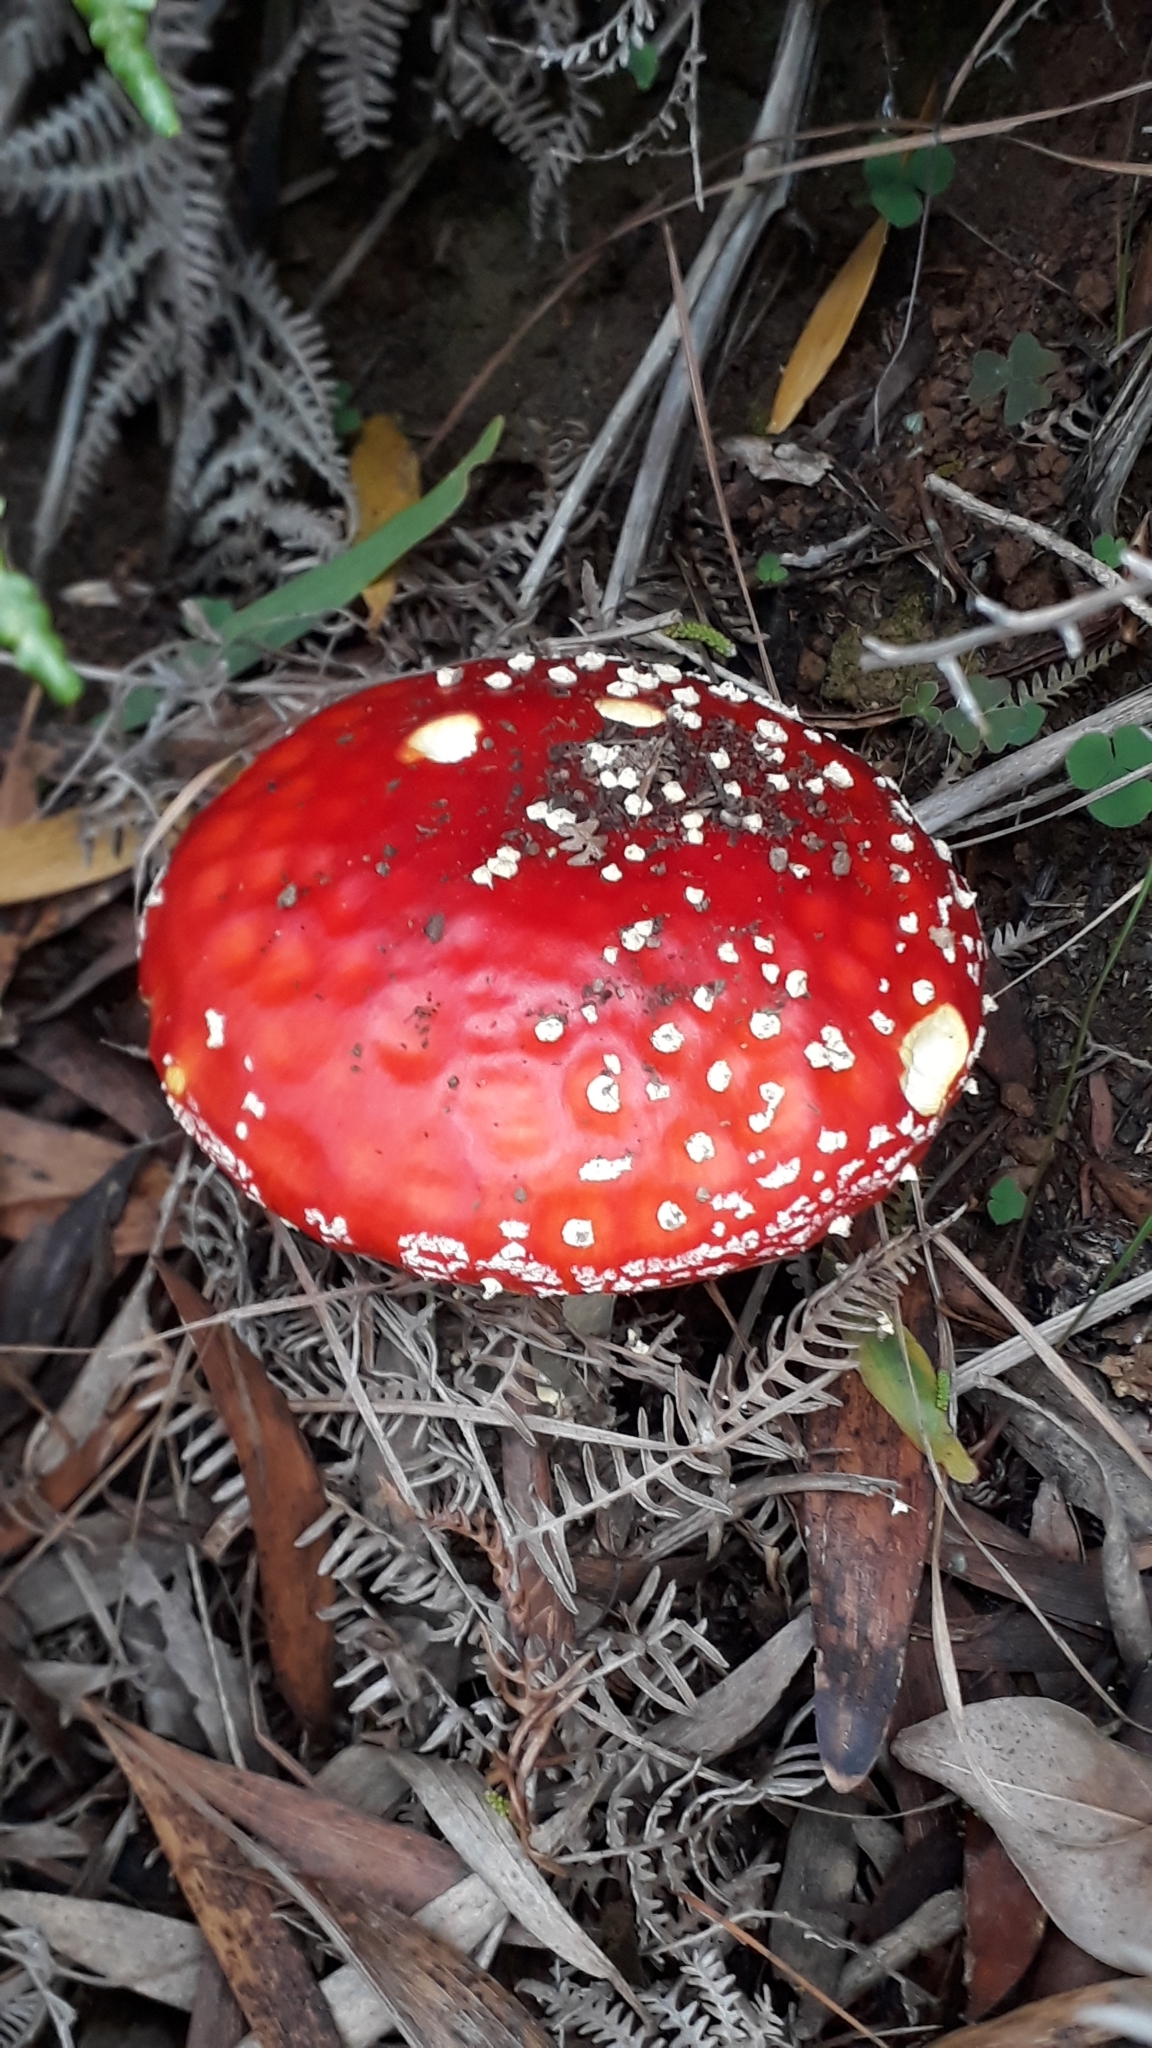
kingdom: Fungi
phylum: Basidiomycota
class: Agaricomycetes
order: Agaricales
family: Amanitaceae
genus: Amanita
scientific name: Amanita muscaria
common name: Fly agaric
